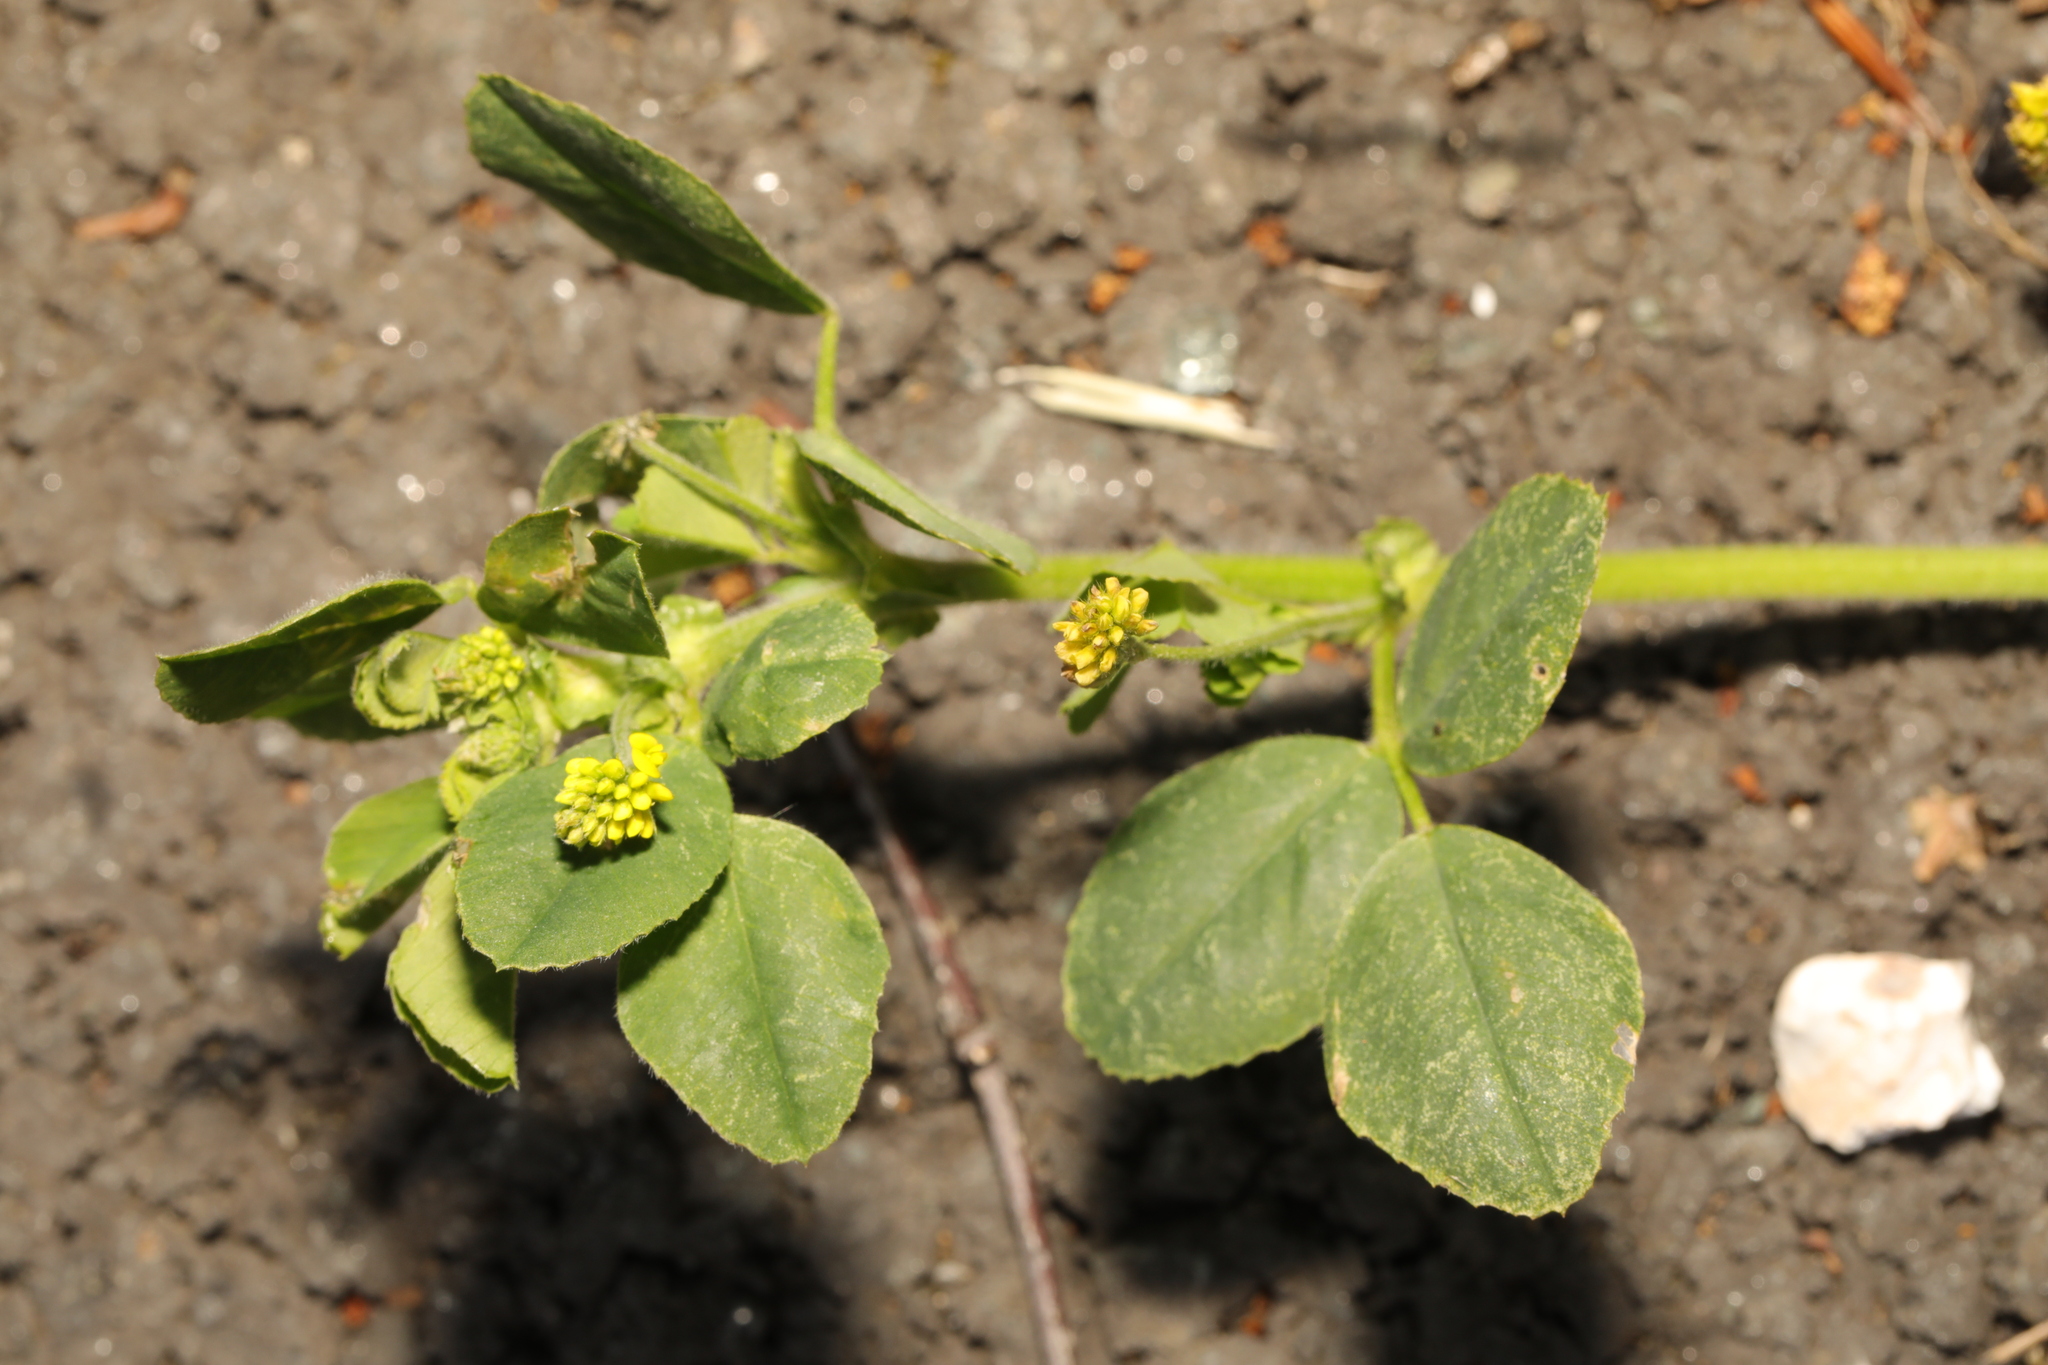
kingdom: Plantae
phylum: Tracheophyta
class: Magnoliopsida
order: Fabales
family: Fabaceae
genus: Medicago
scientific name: Medicago lupulina
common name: Black medick
